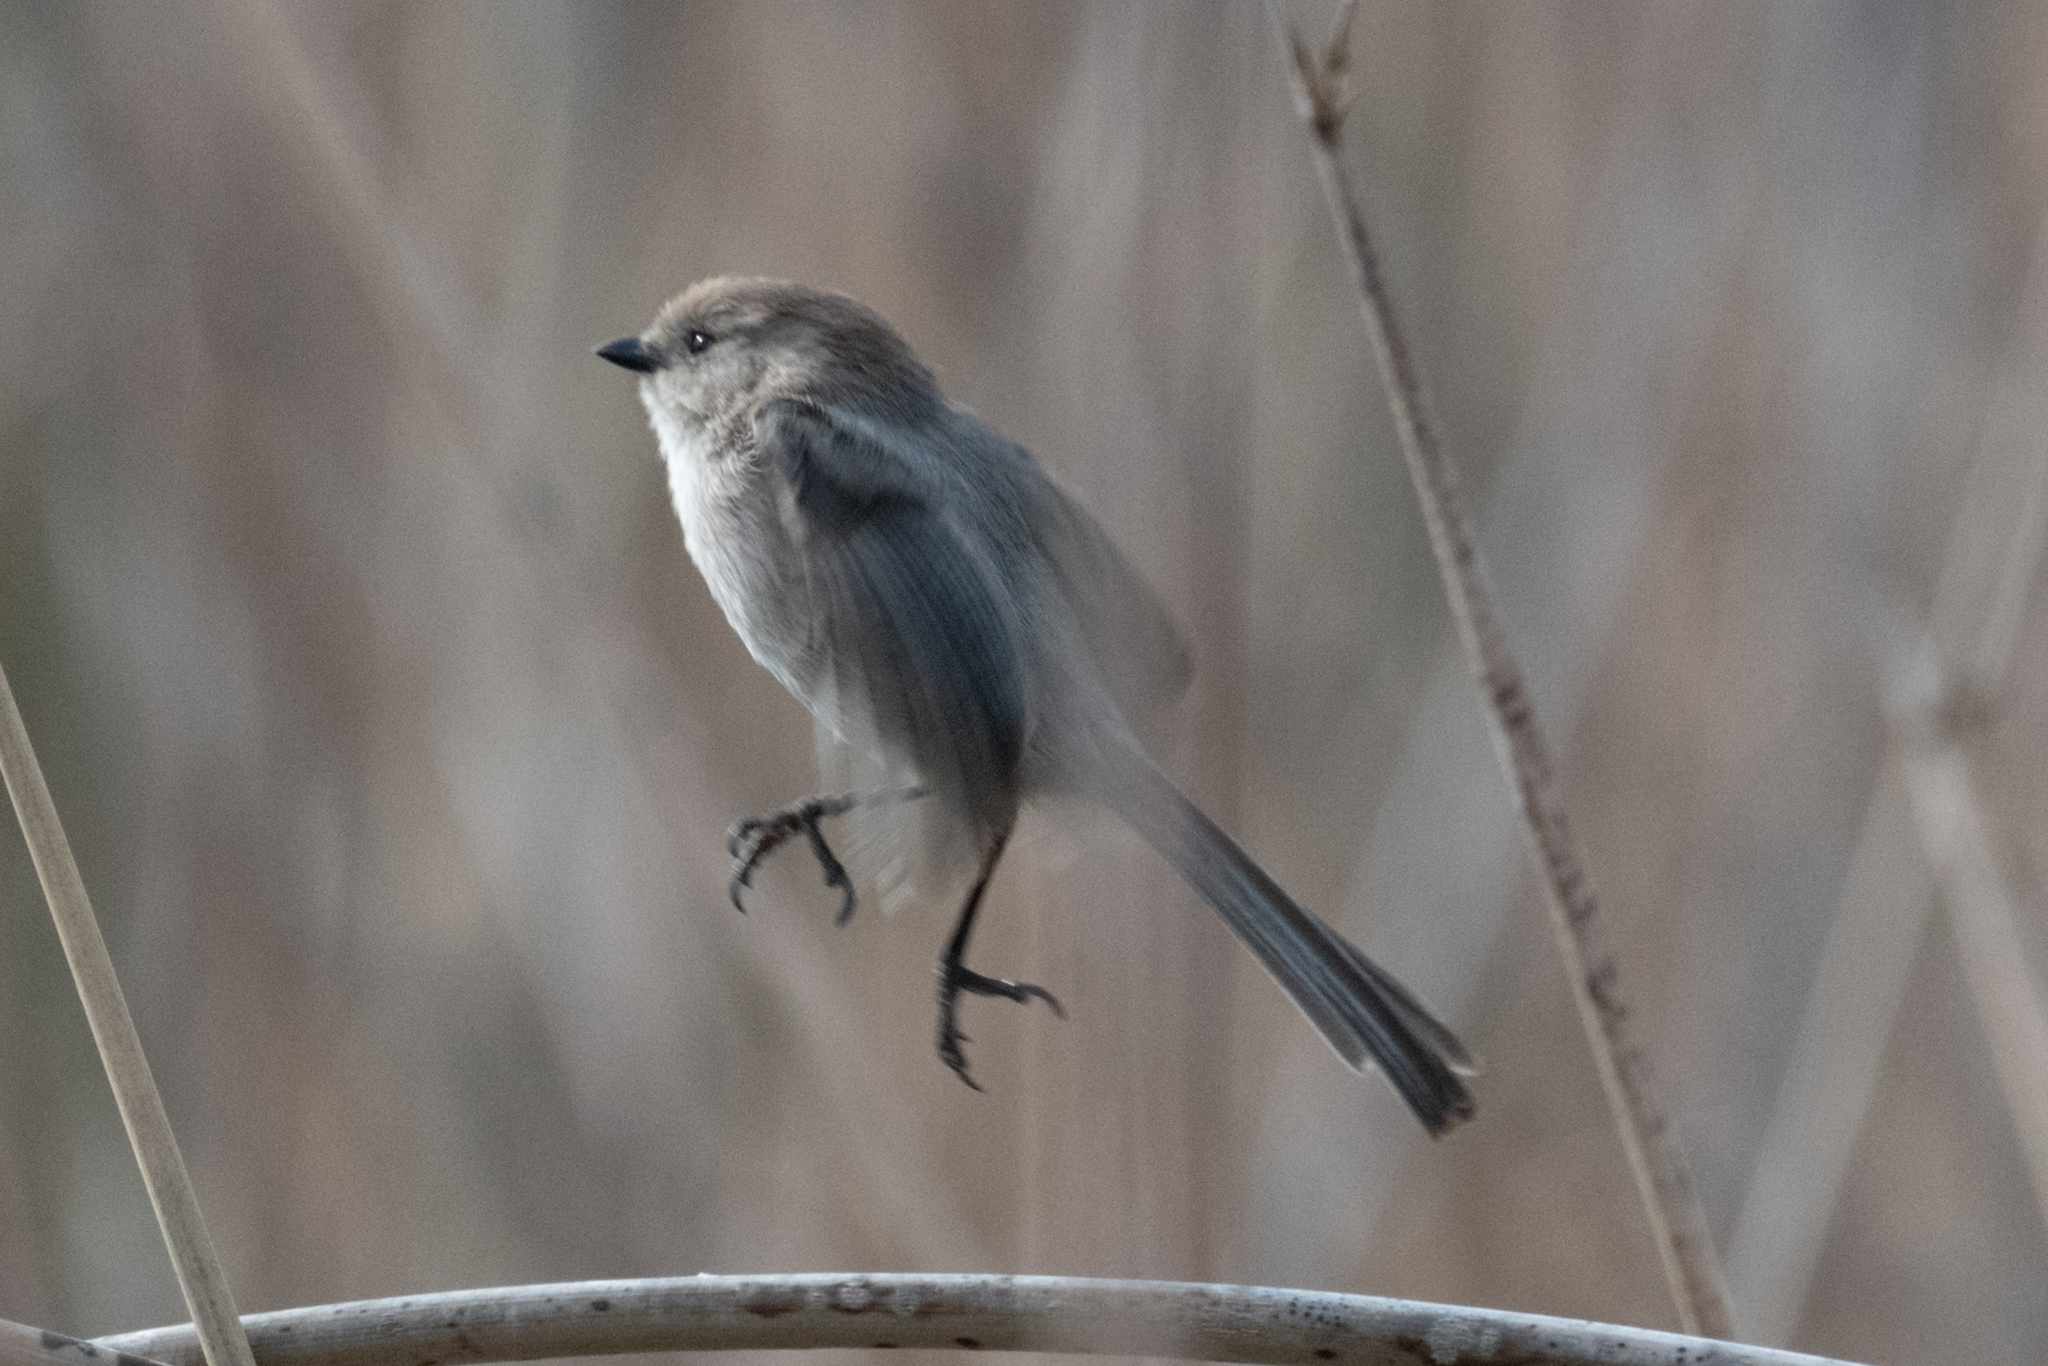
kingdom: Animalia
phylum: Chordata
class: Aves
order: Passeriformes
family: Aegithalidae
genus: Psaltriparus
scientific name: Psaltriparus minimus
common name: American bushtit
